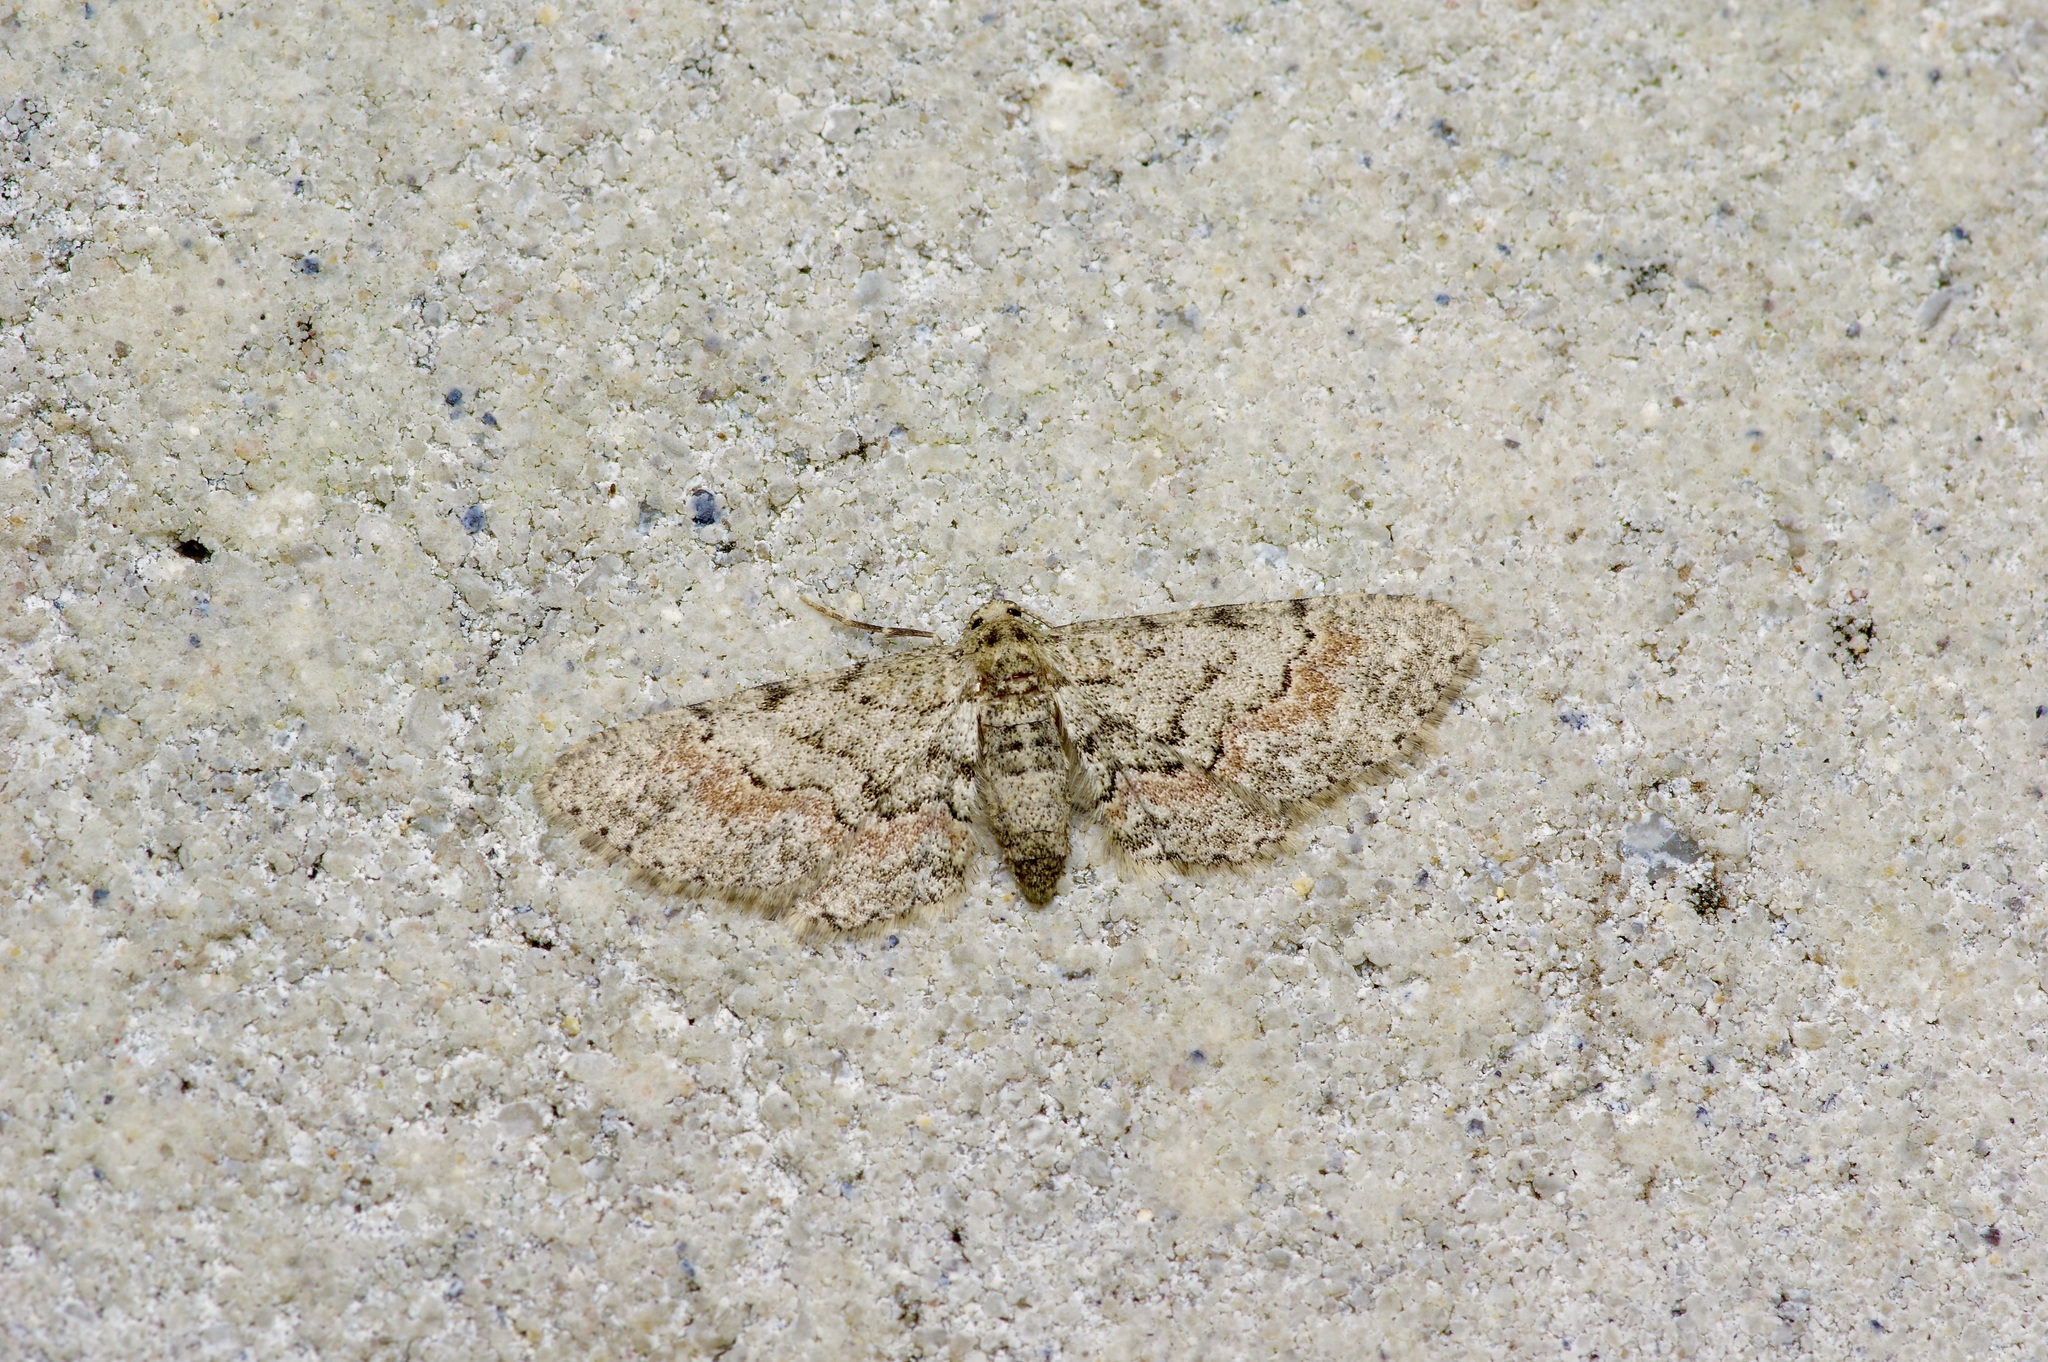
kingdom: Animalia
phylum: Arthropoda
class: Insecta
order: Lepidoptera
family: Geometridae
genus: Glenoides
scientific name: Glenoides texanaria
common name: Texas gray
